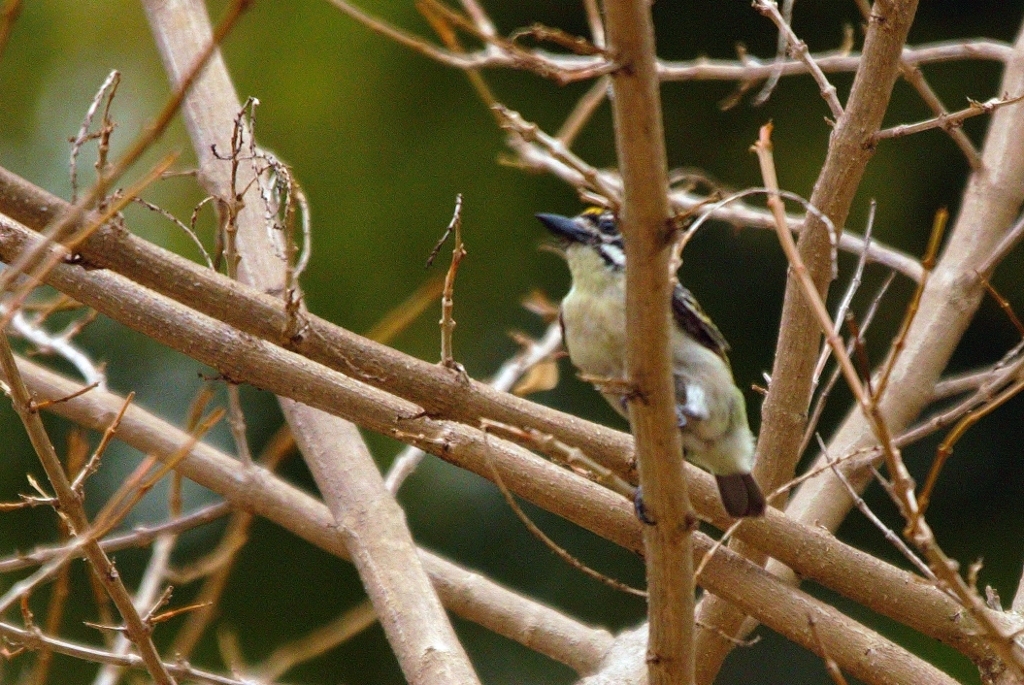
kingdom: Animalia
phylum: Chordata
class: Aves
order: Piciformes
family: Lybiidae
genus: Pogoniulus
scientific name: Pogoniulus chrysoconus
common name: Yellow-fronted tinkerbird
